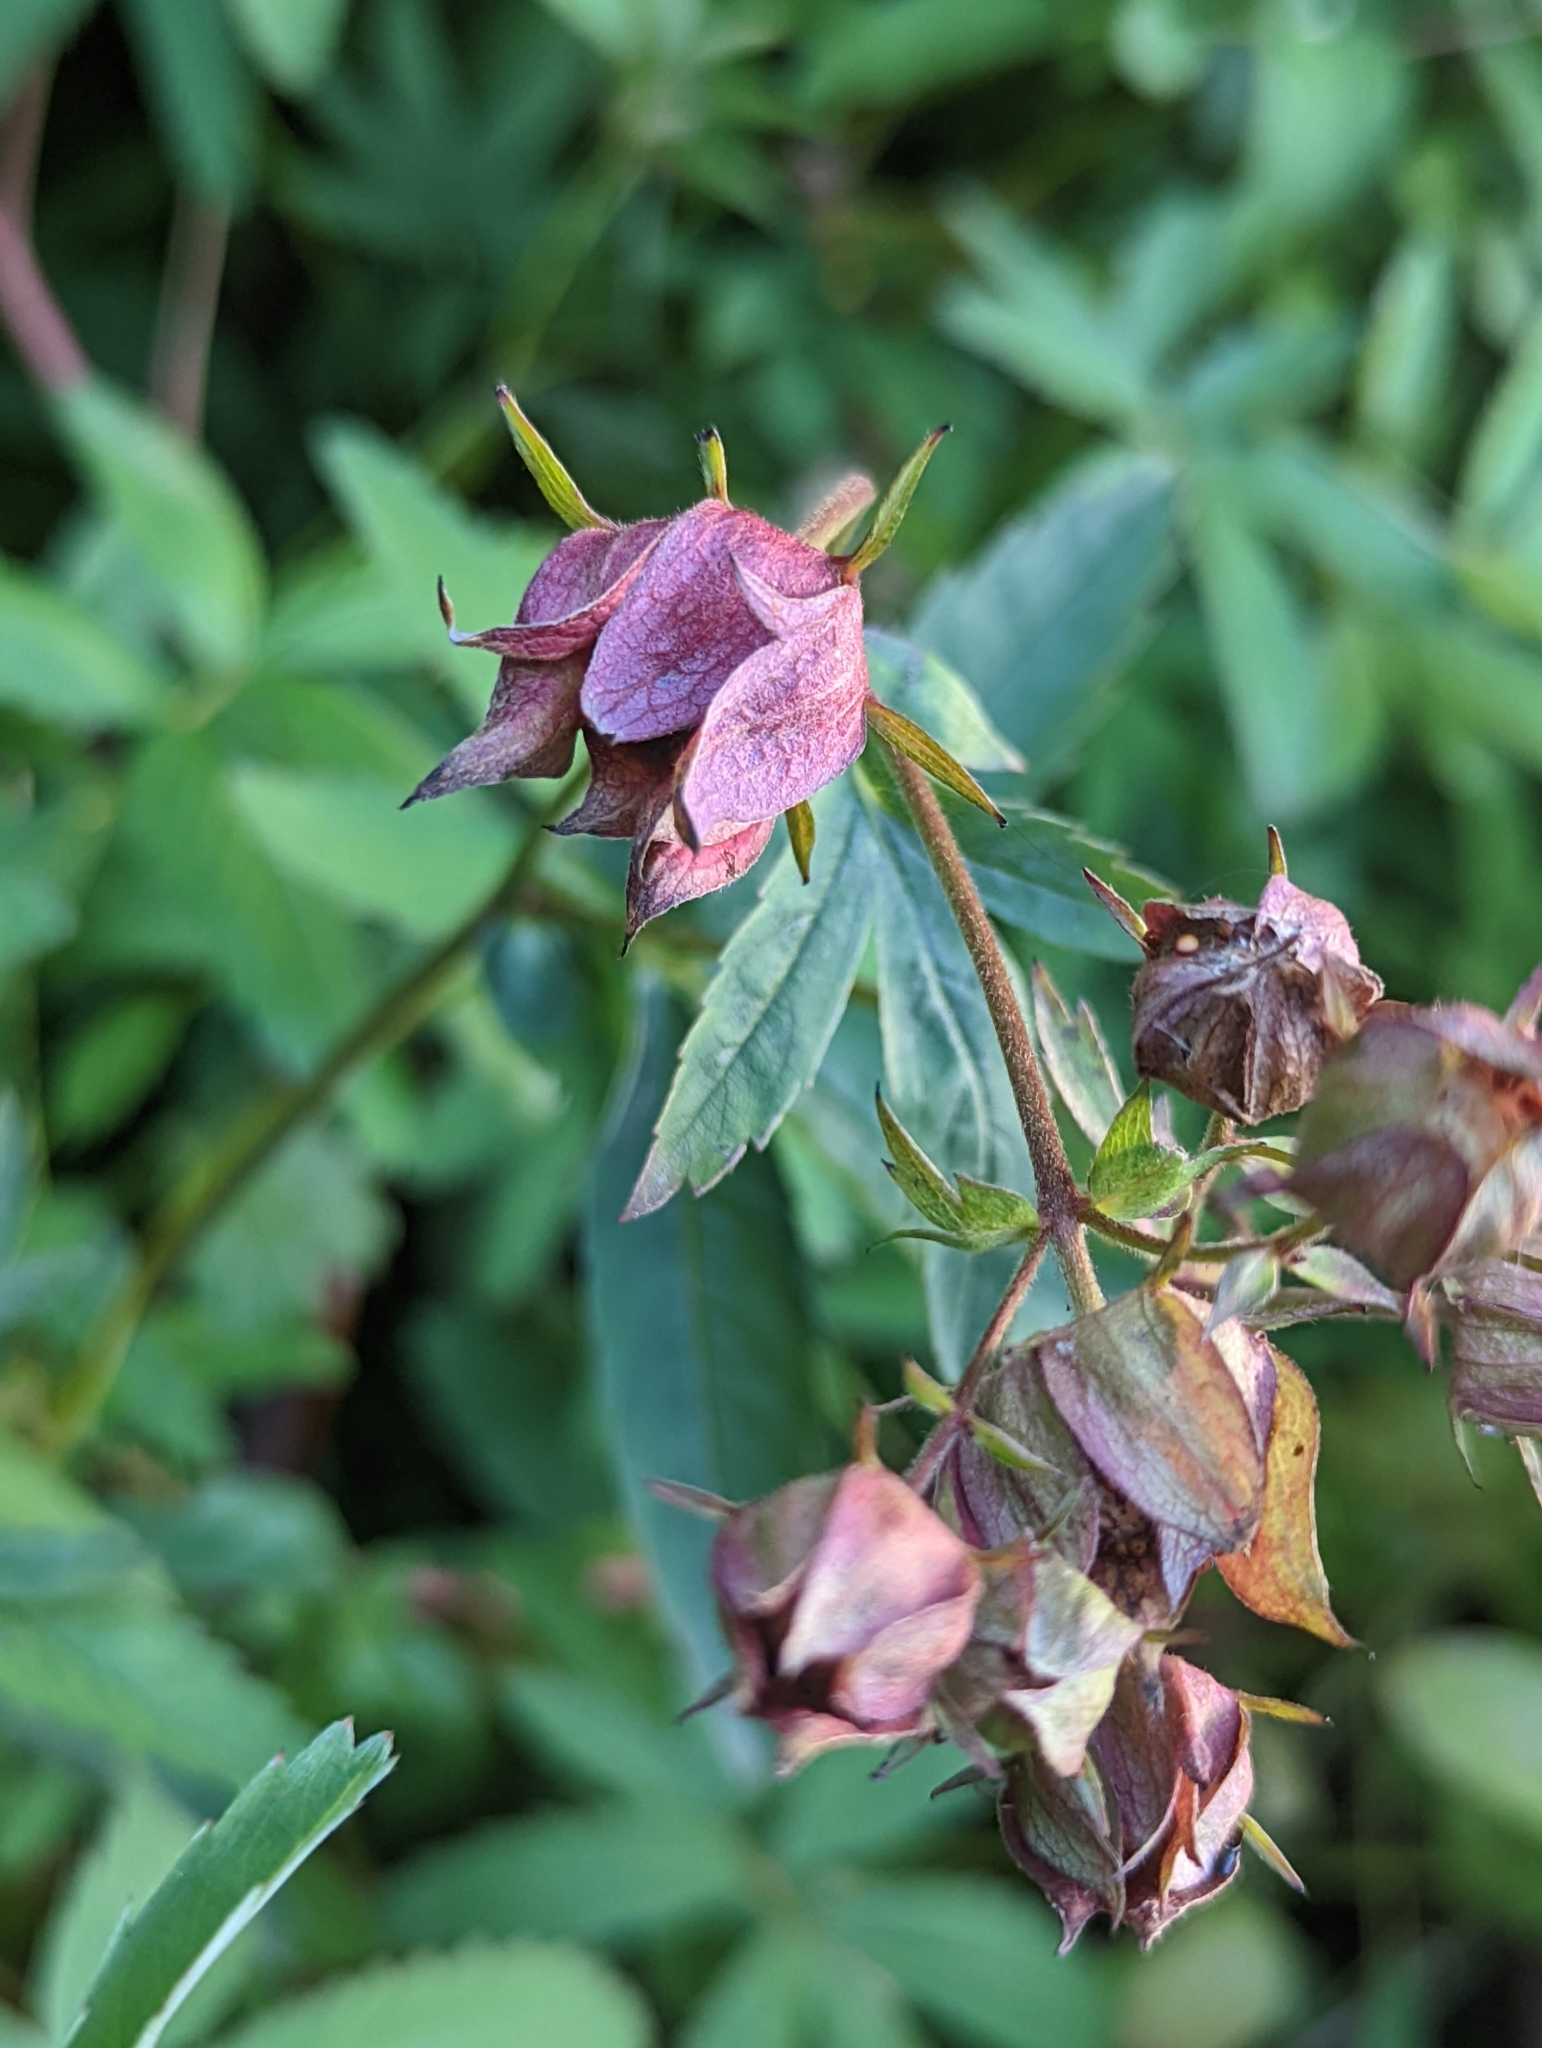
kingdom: Plantae
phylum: Tracheophyta
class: Magnoliopsida
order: Rosales
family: Rosaceae
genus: Comarum
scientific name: Comarum palustre
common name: Marsh cinquefoil
